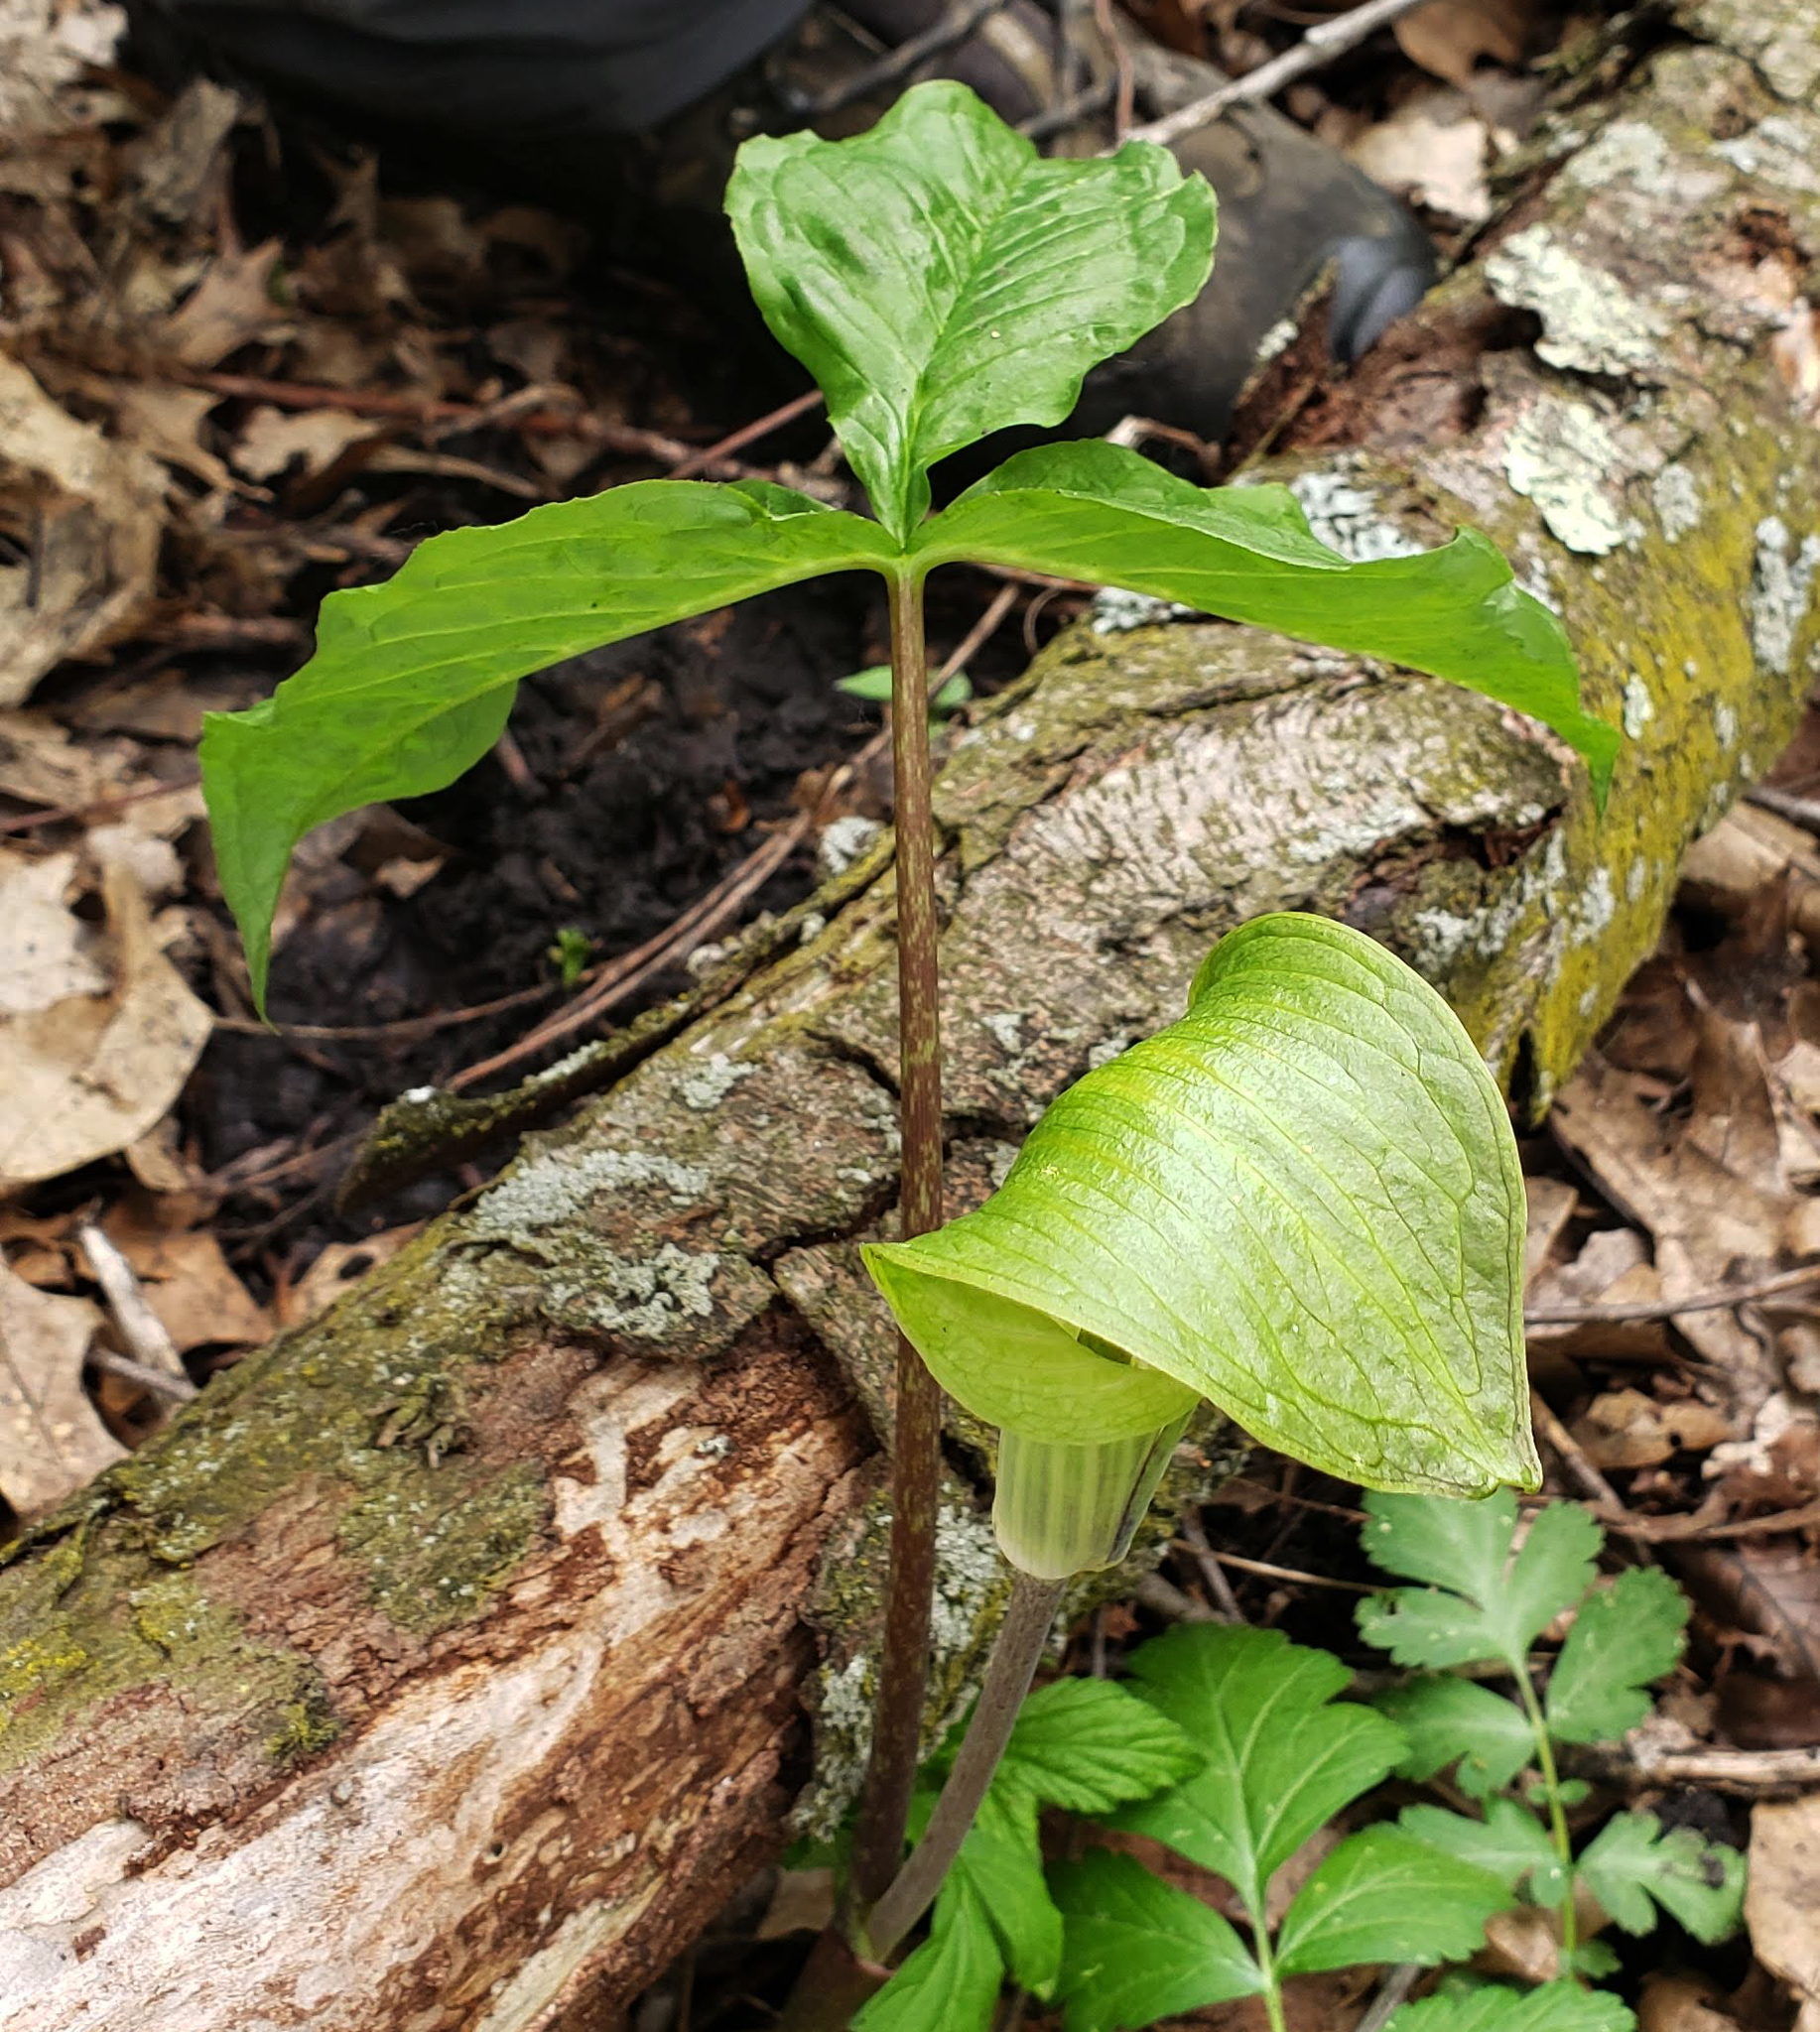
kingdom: Plantae
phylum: Tracheophyta
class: Liliopsida
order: Alismatales
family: Araceae
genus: Arisaema
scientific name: Arisaema triphyllum
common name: Jack-in-the-pulpit
